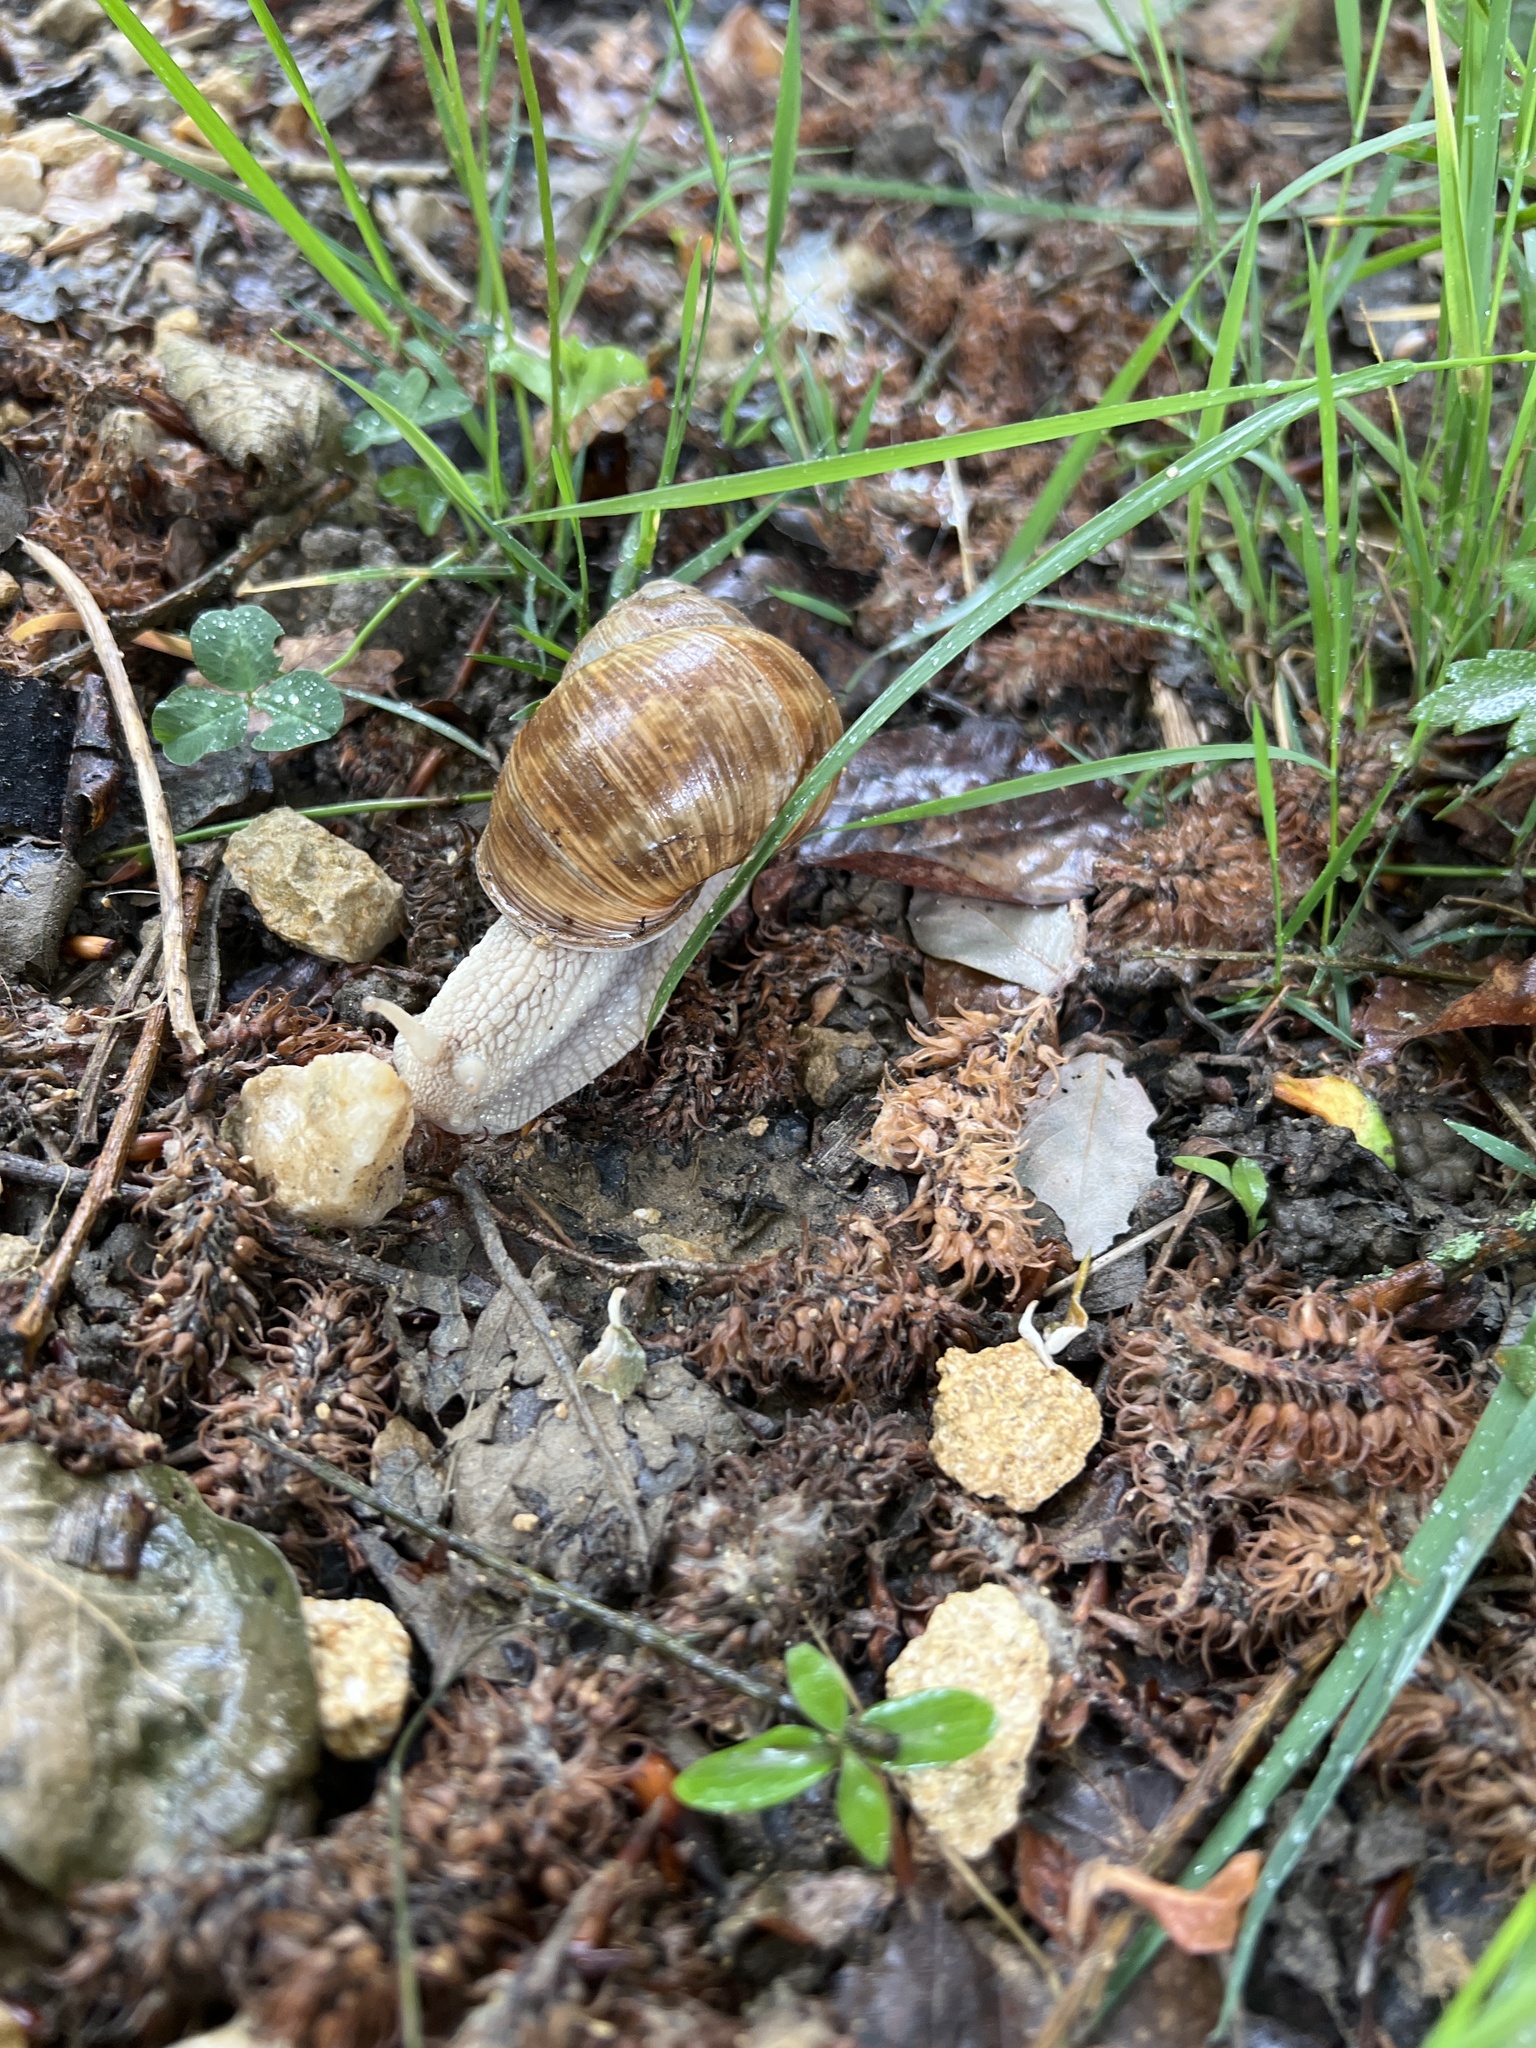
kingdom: Animalia
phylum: Mollusca
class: Gastropoda
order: Stylommatophora
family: Helicidae
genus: Helix
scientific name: Helix pomatia
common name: Roman snail
